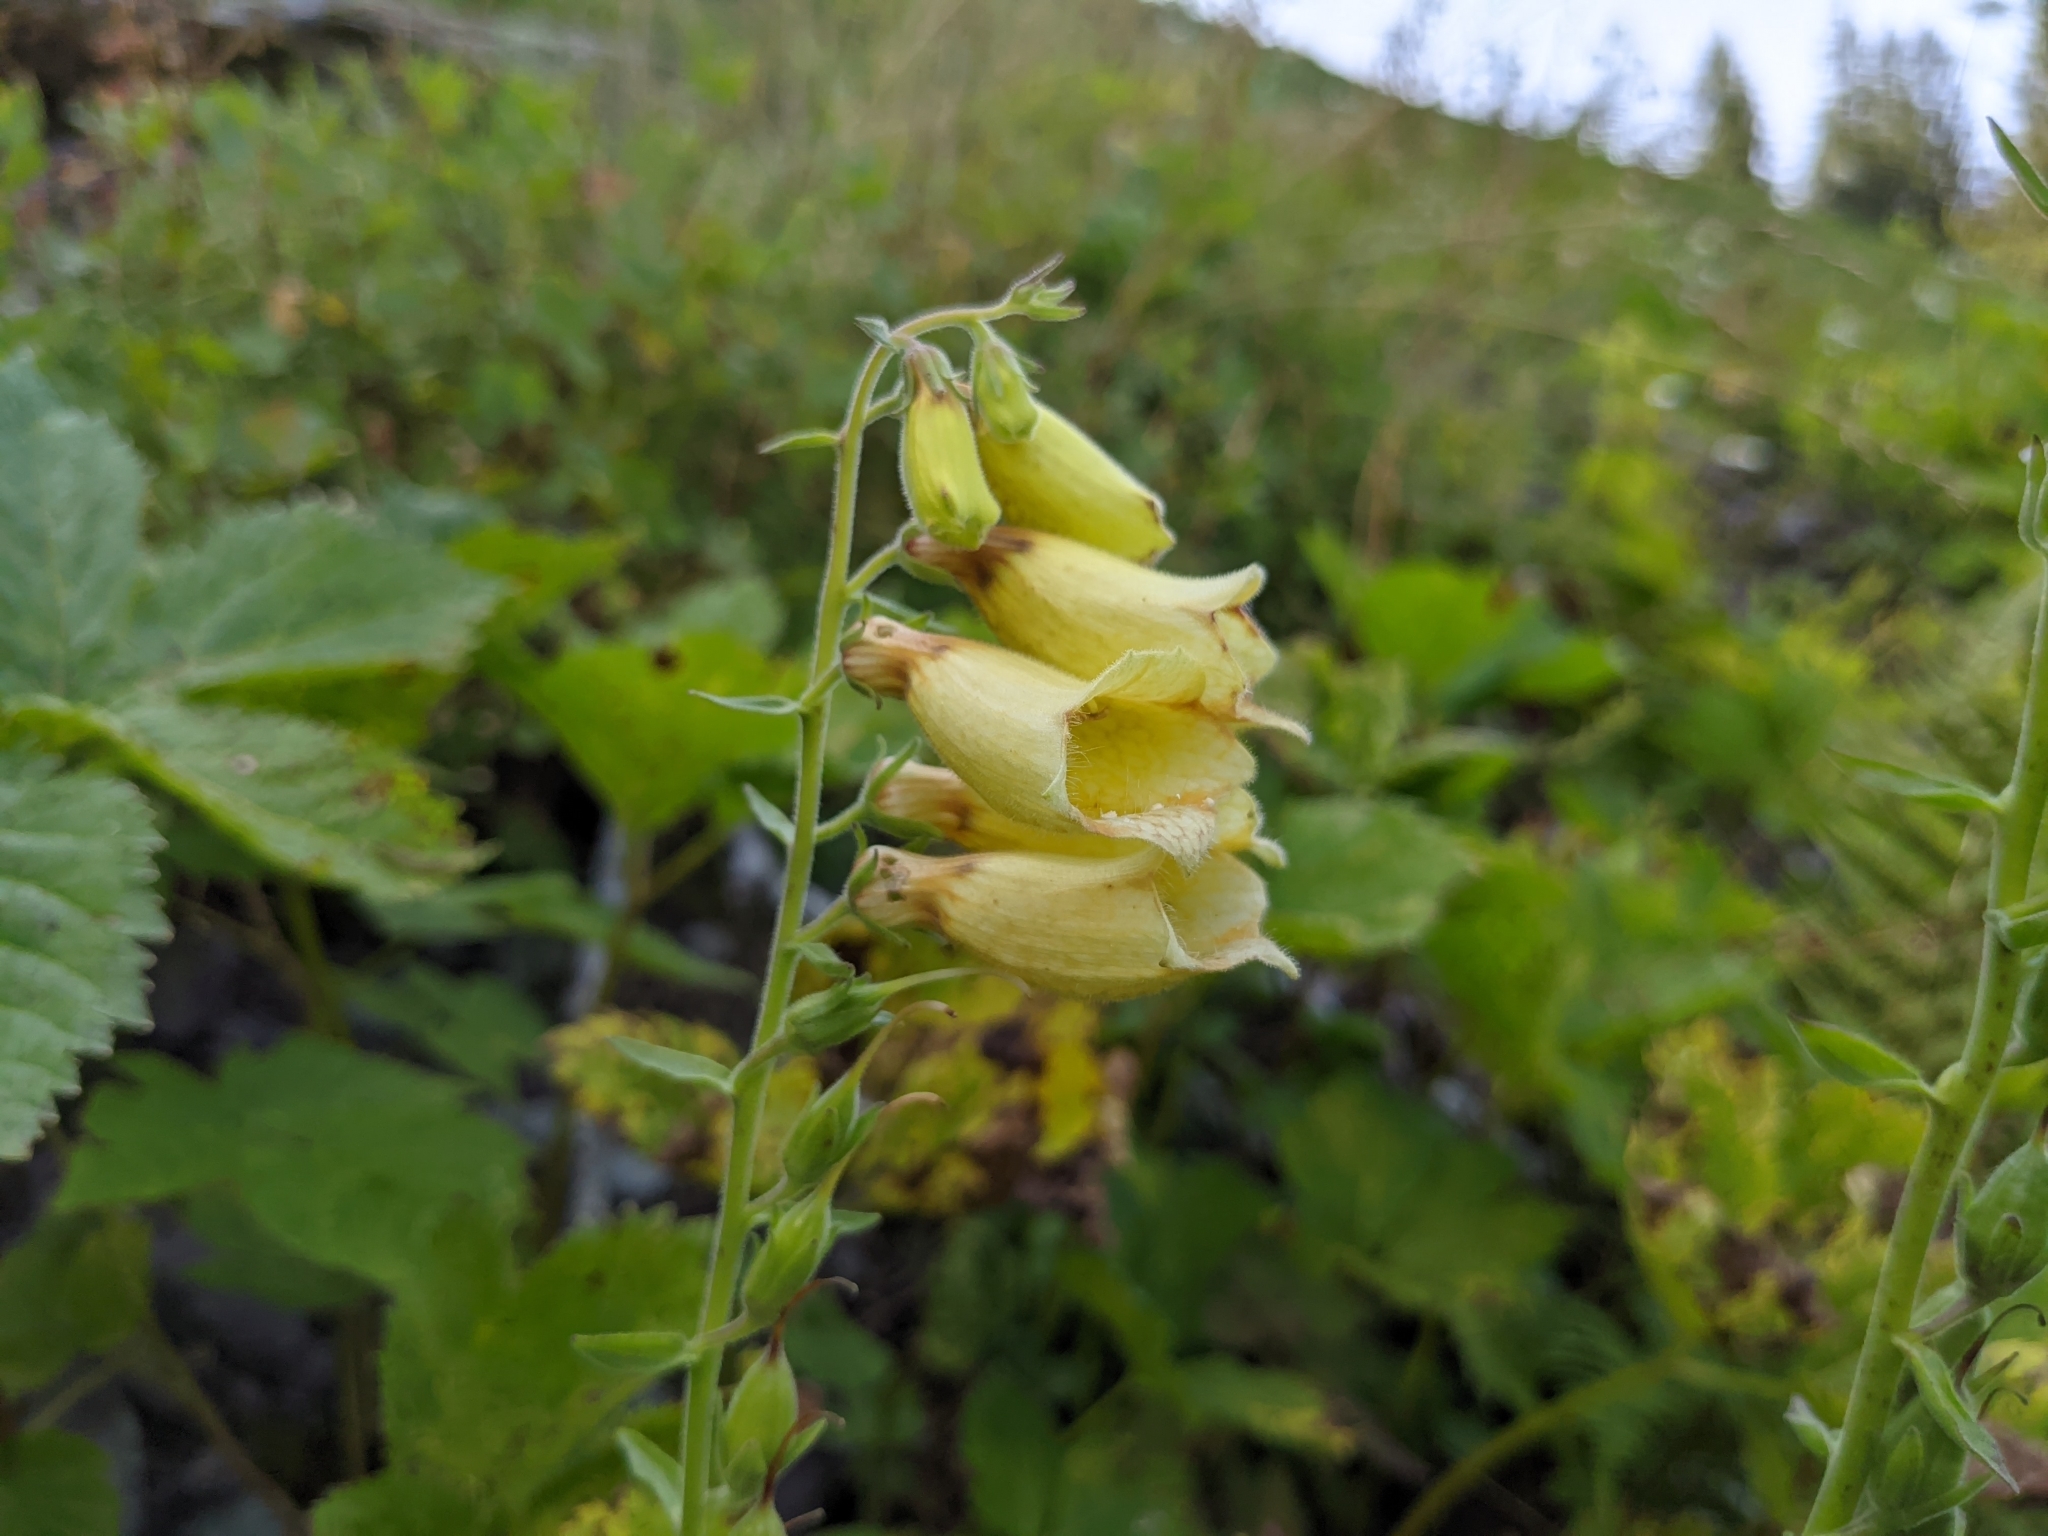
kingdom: Plantae
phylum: Tracheophyta
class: Magnoliopsida
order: Lamiales
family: Plantaginaceae
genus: Digitalis
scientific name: Digitalis grandiflora
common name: Yellow foxglove
